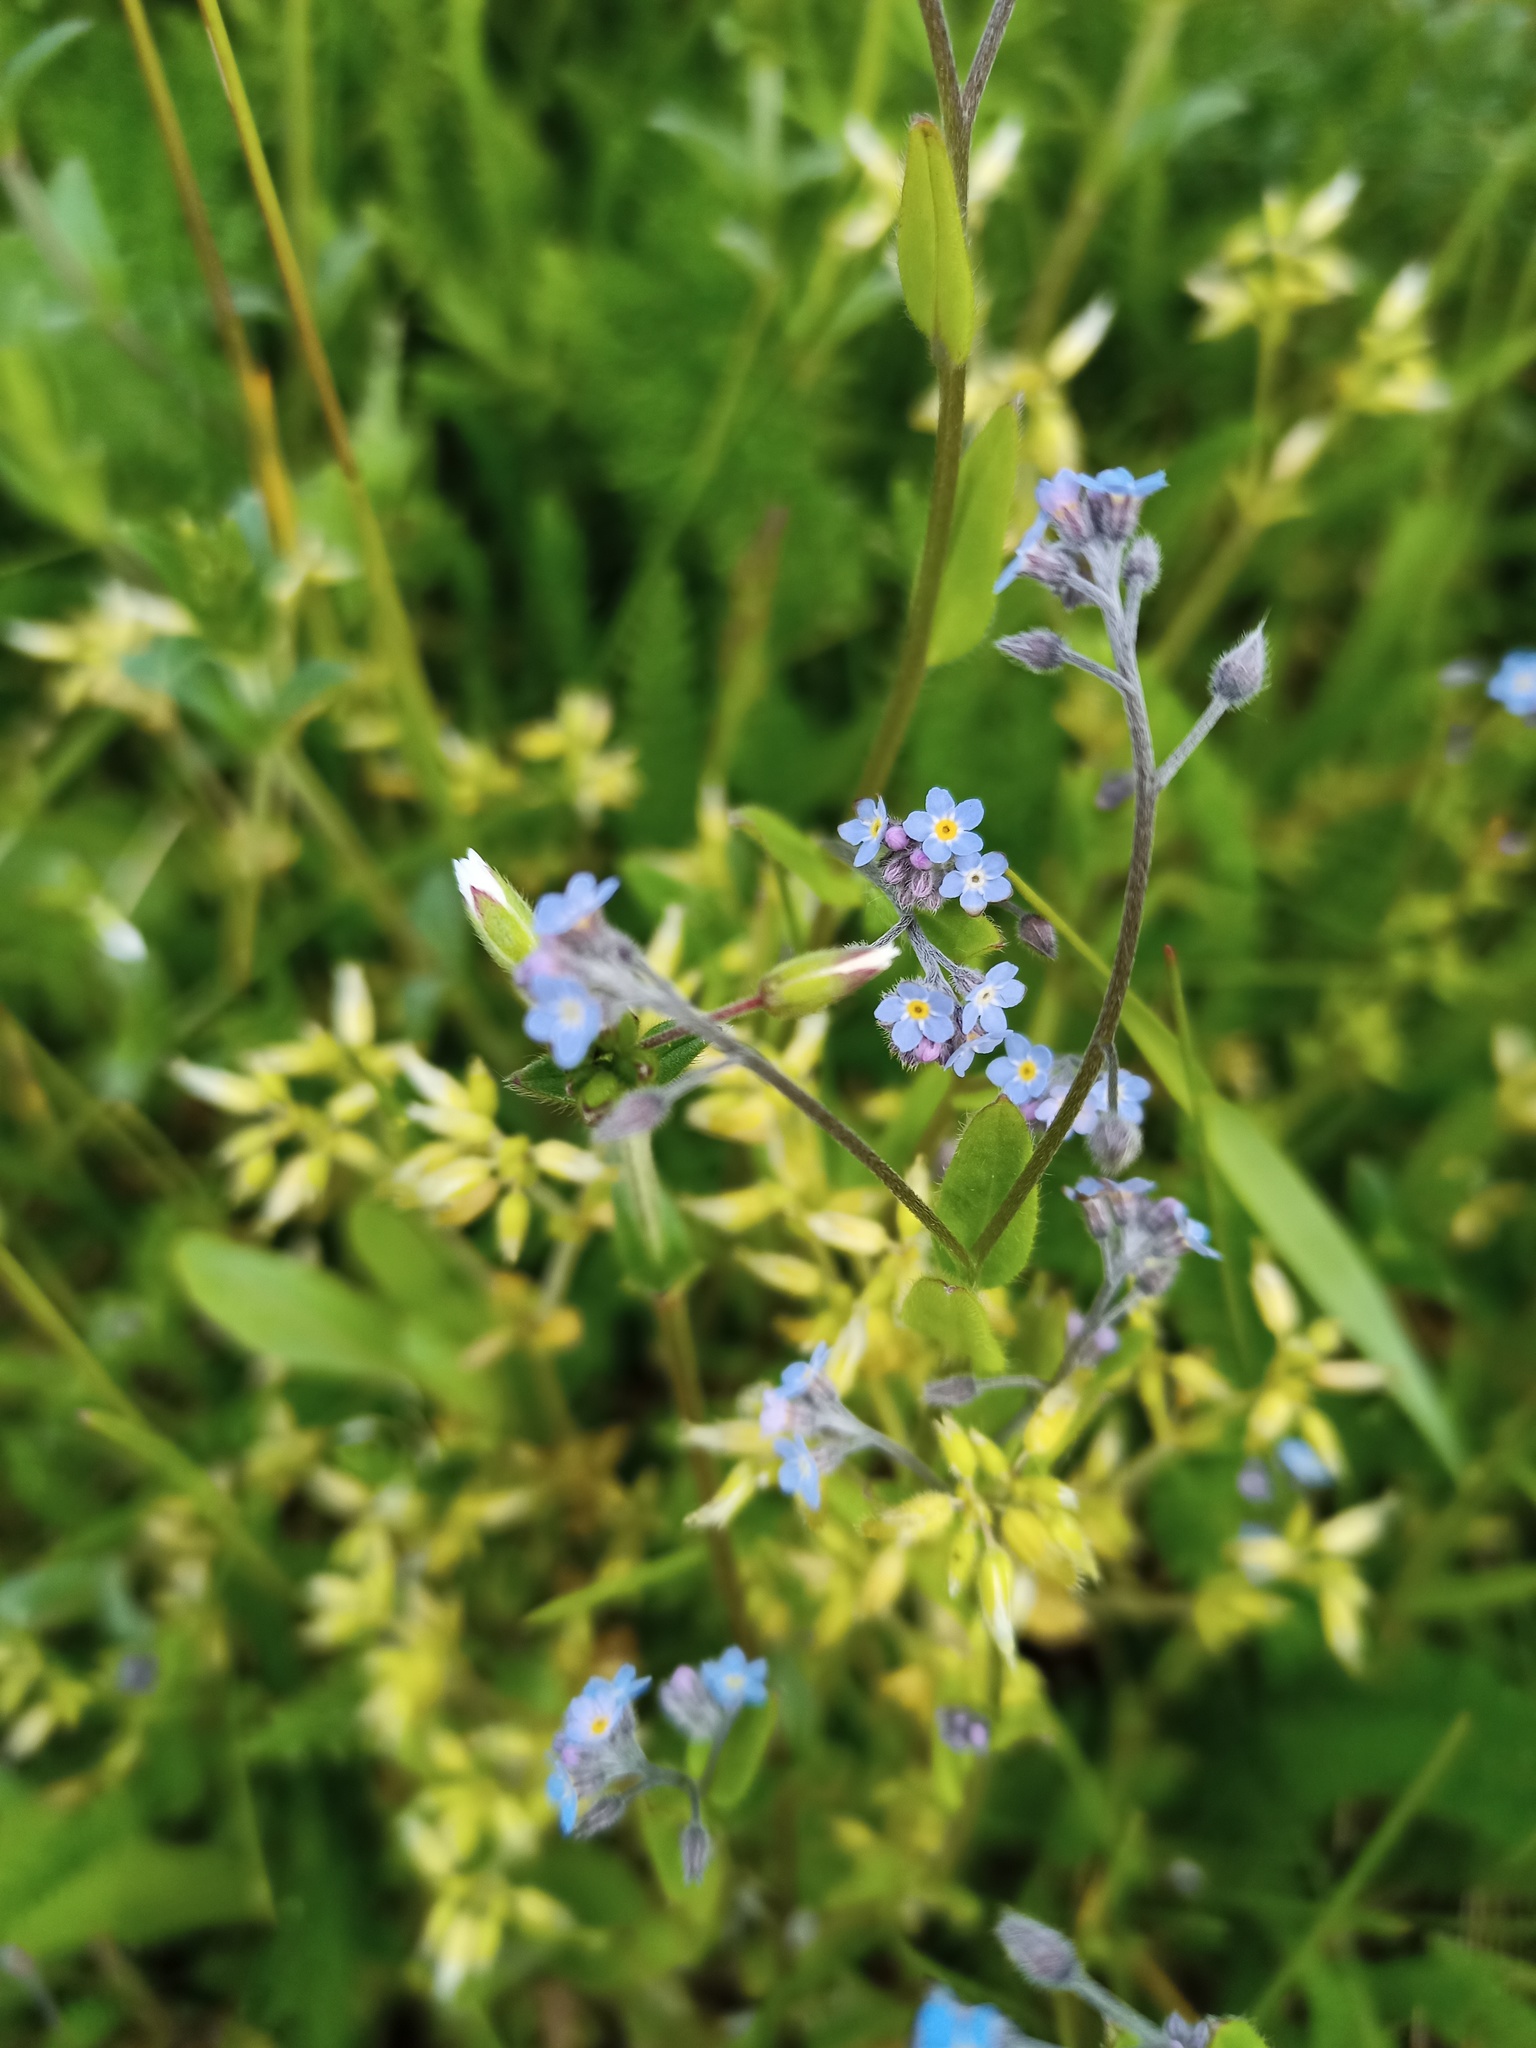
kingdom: Plantae
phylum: Tracheophyta
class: Magnoliopsida
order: Boraginales
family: Boraginaceae
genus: Myosotis
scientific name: Myosotis arvensis
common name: Field forget-me-not
